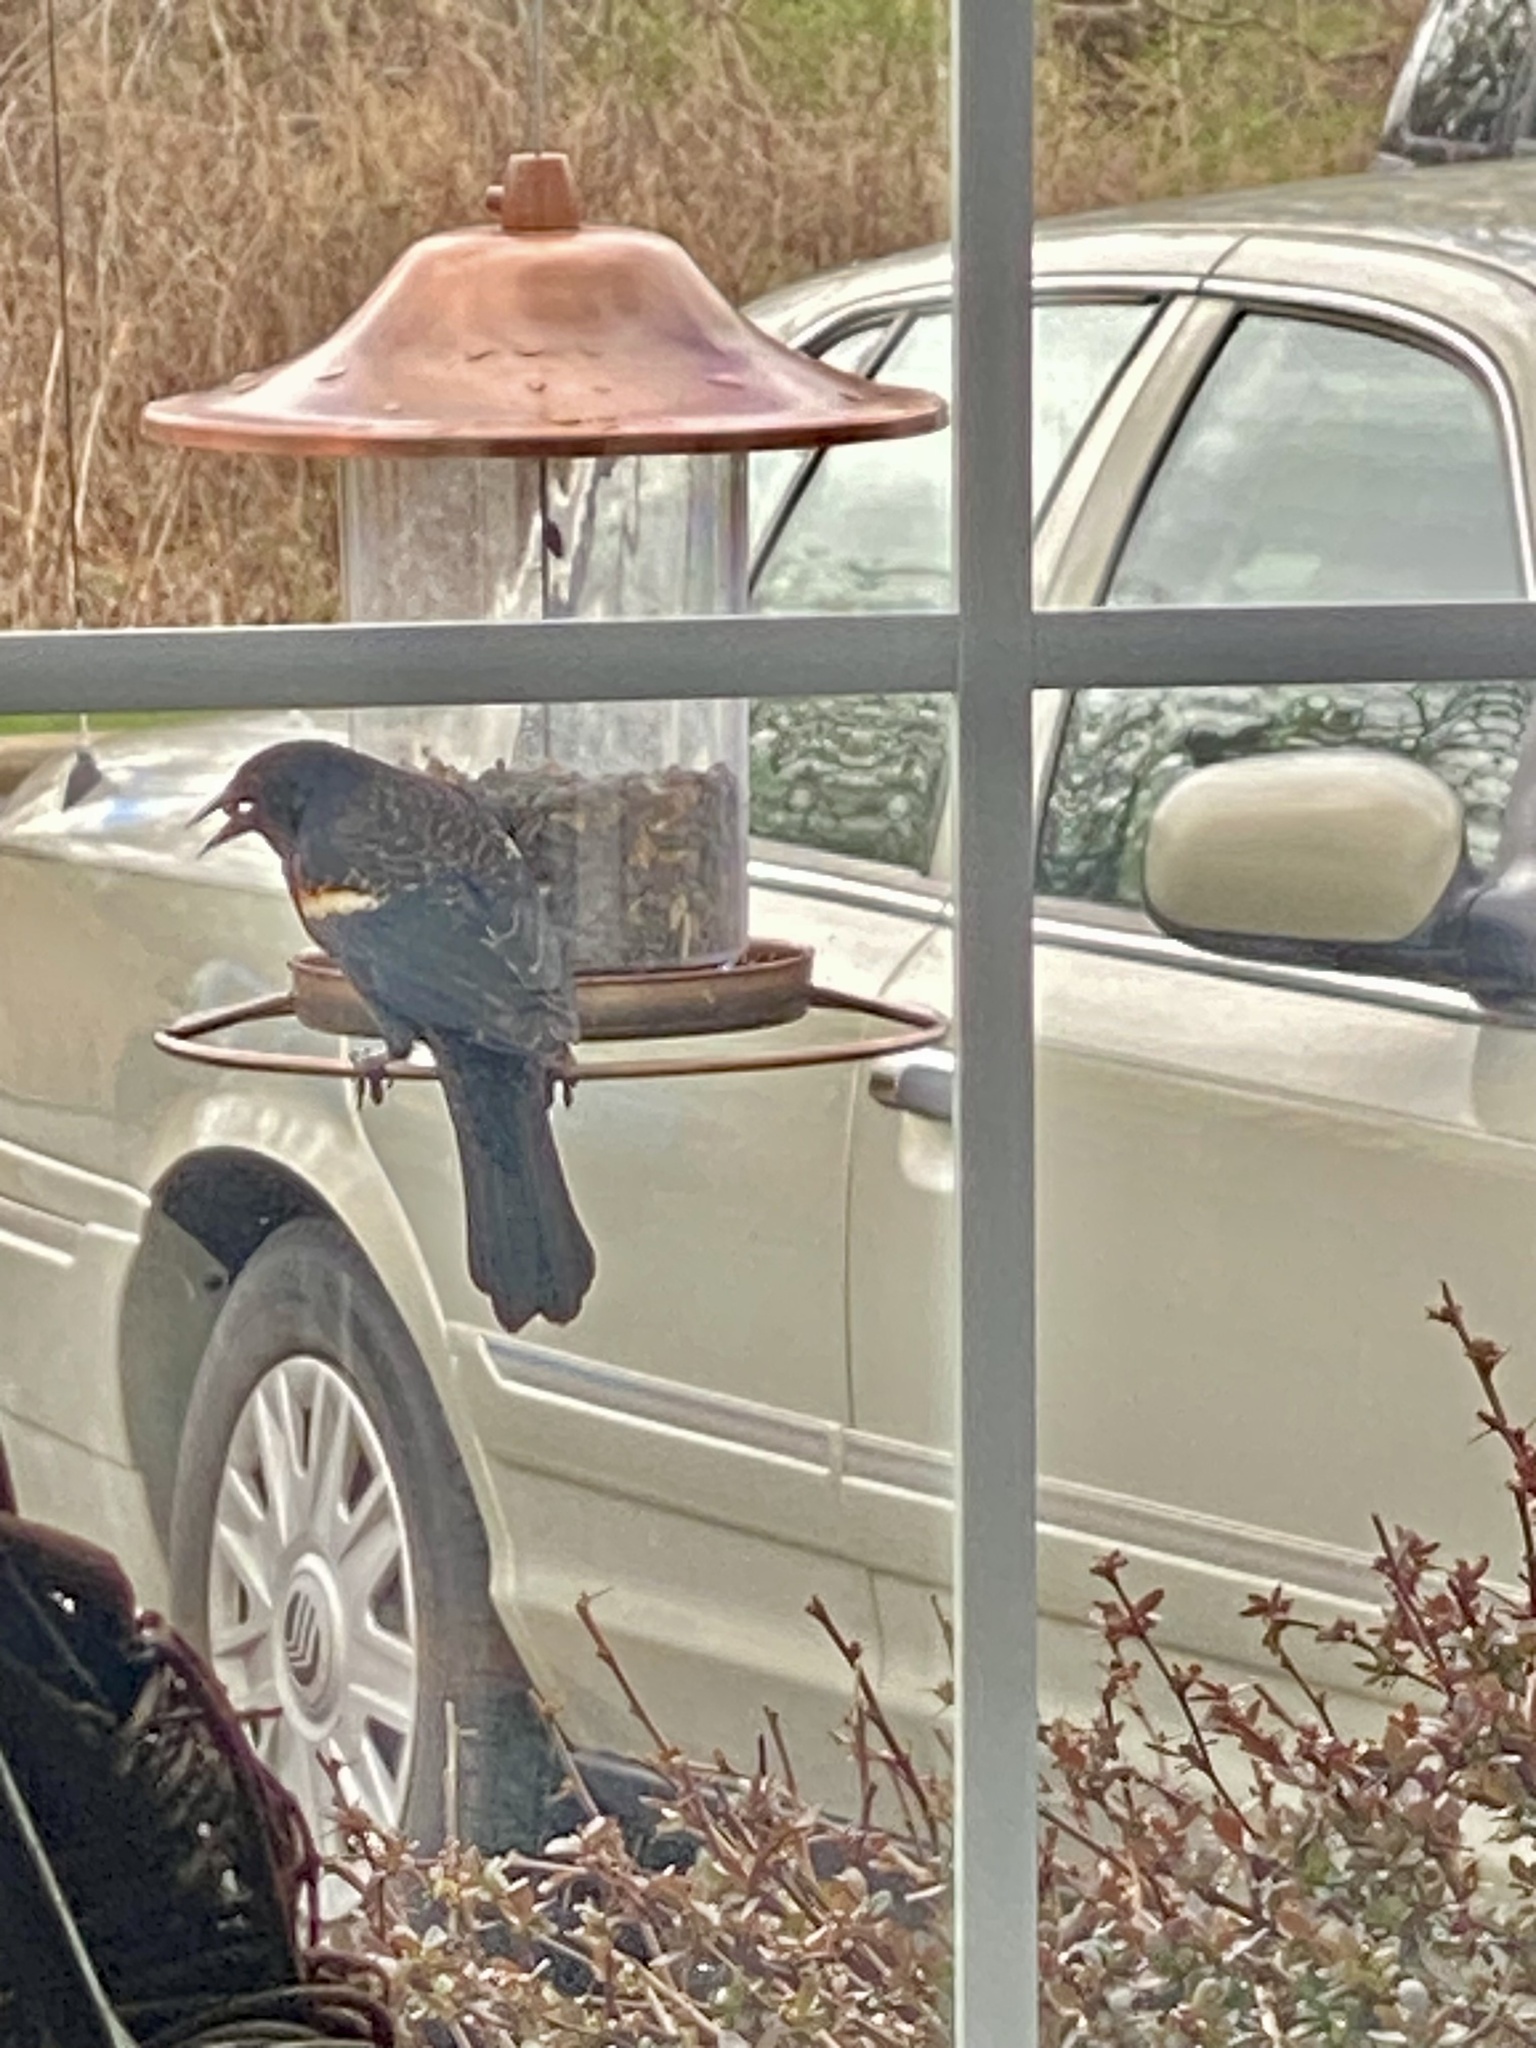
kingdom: Animalia
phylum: Chordata
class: Aves
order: Passeriformes
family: Icteridae
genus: Agelaius
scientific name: Agelaius phoeniceus
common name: Red-winged blackbird
